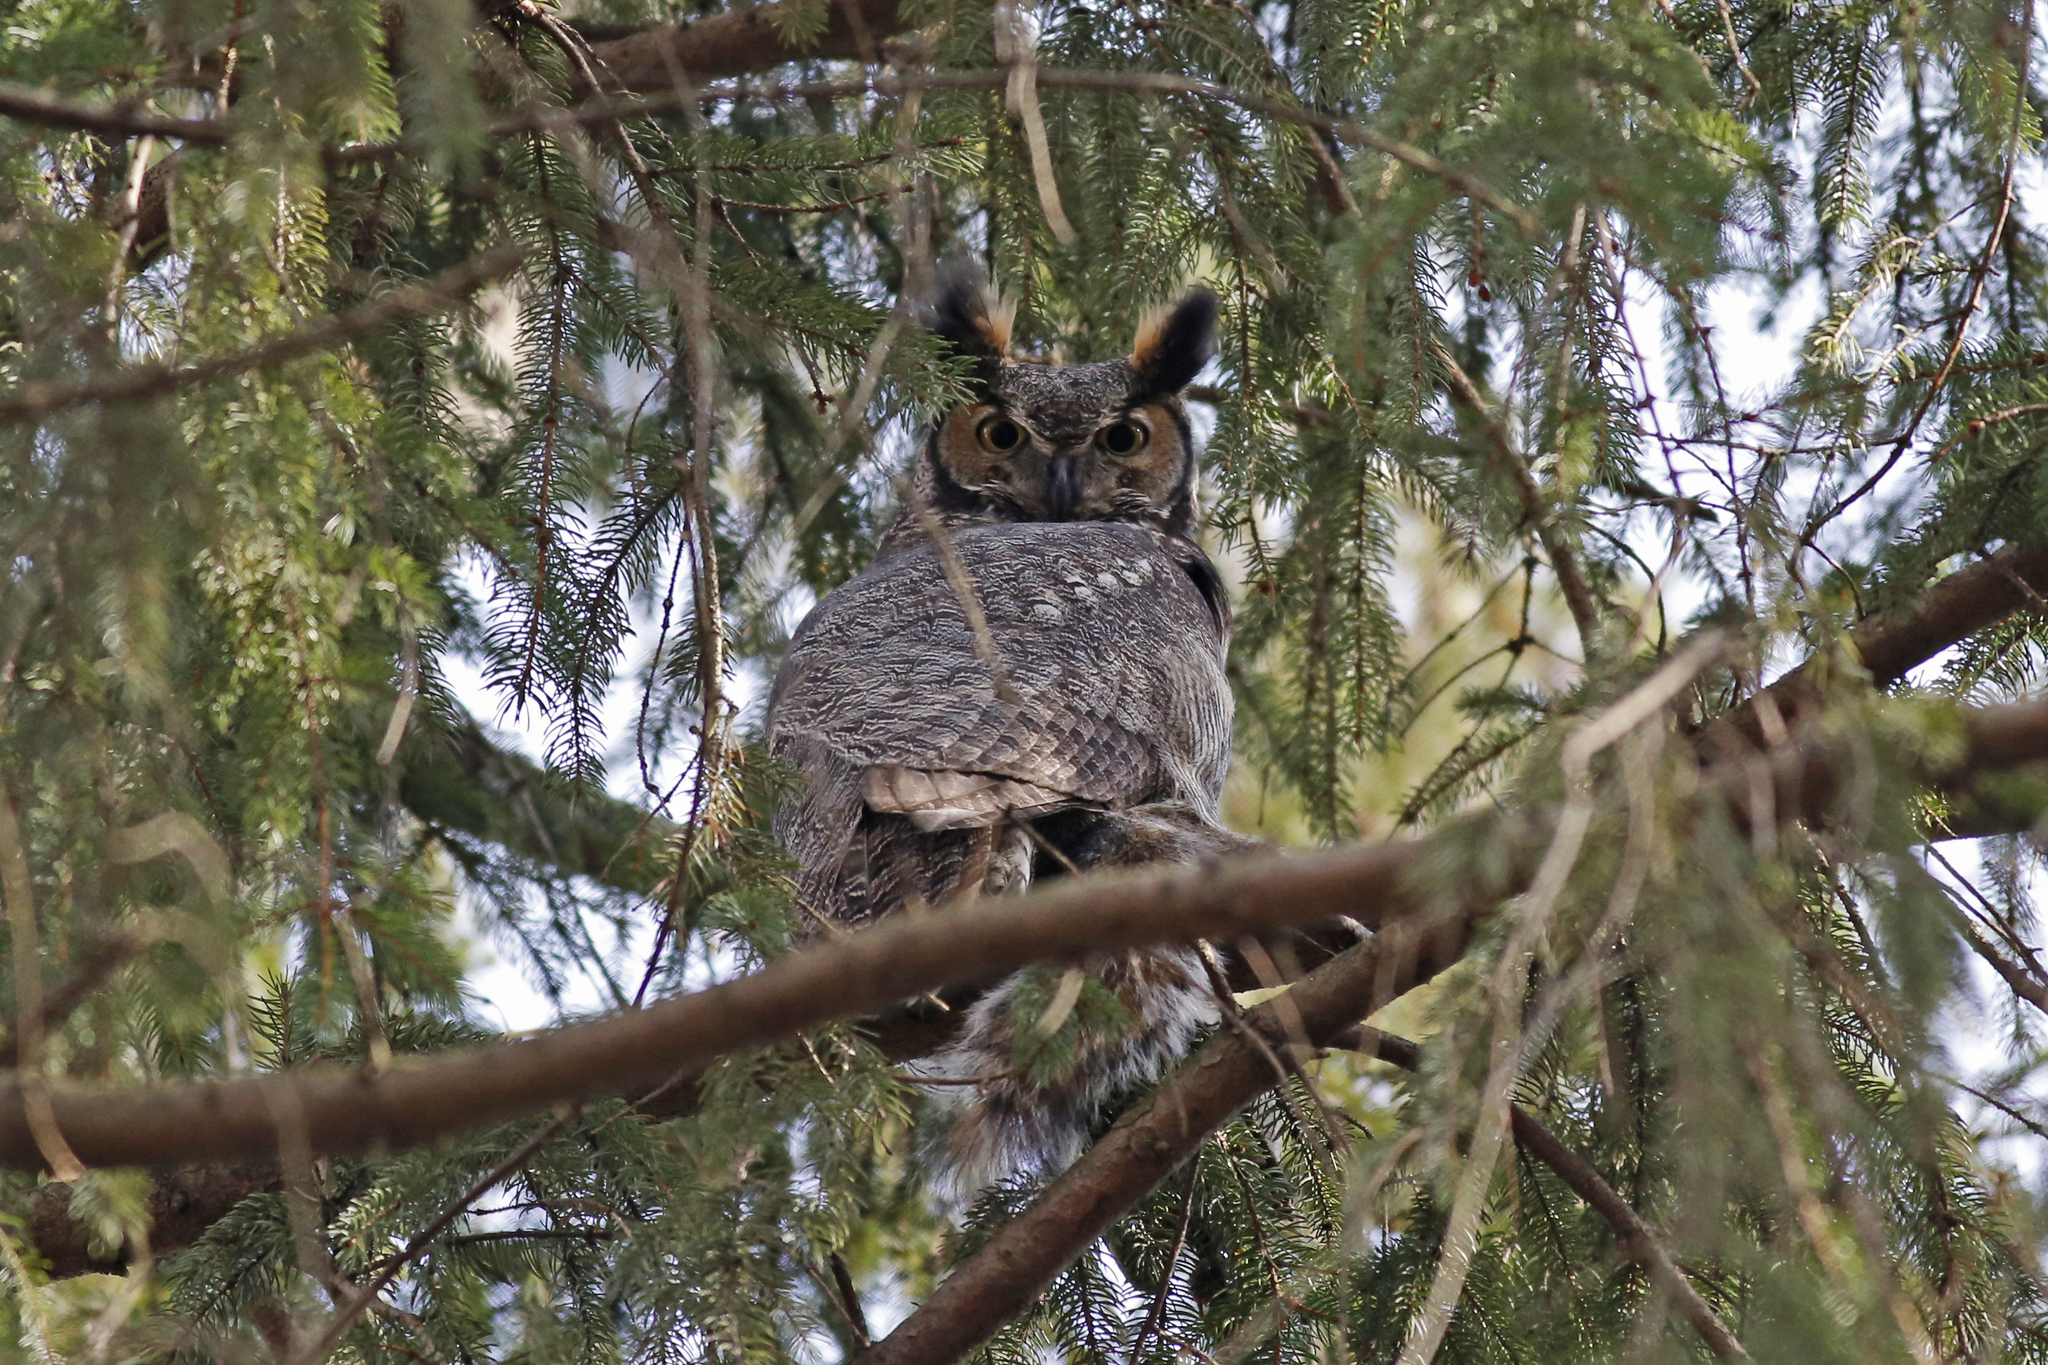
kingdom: Animalia
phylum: Chordata
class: Aves
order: Strigiformes
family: Strigidae
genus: Bubo
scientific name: Bubo virginianus
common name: Great horned owl
